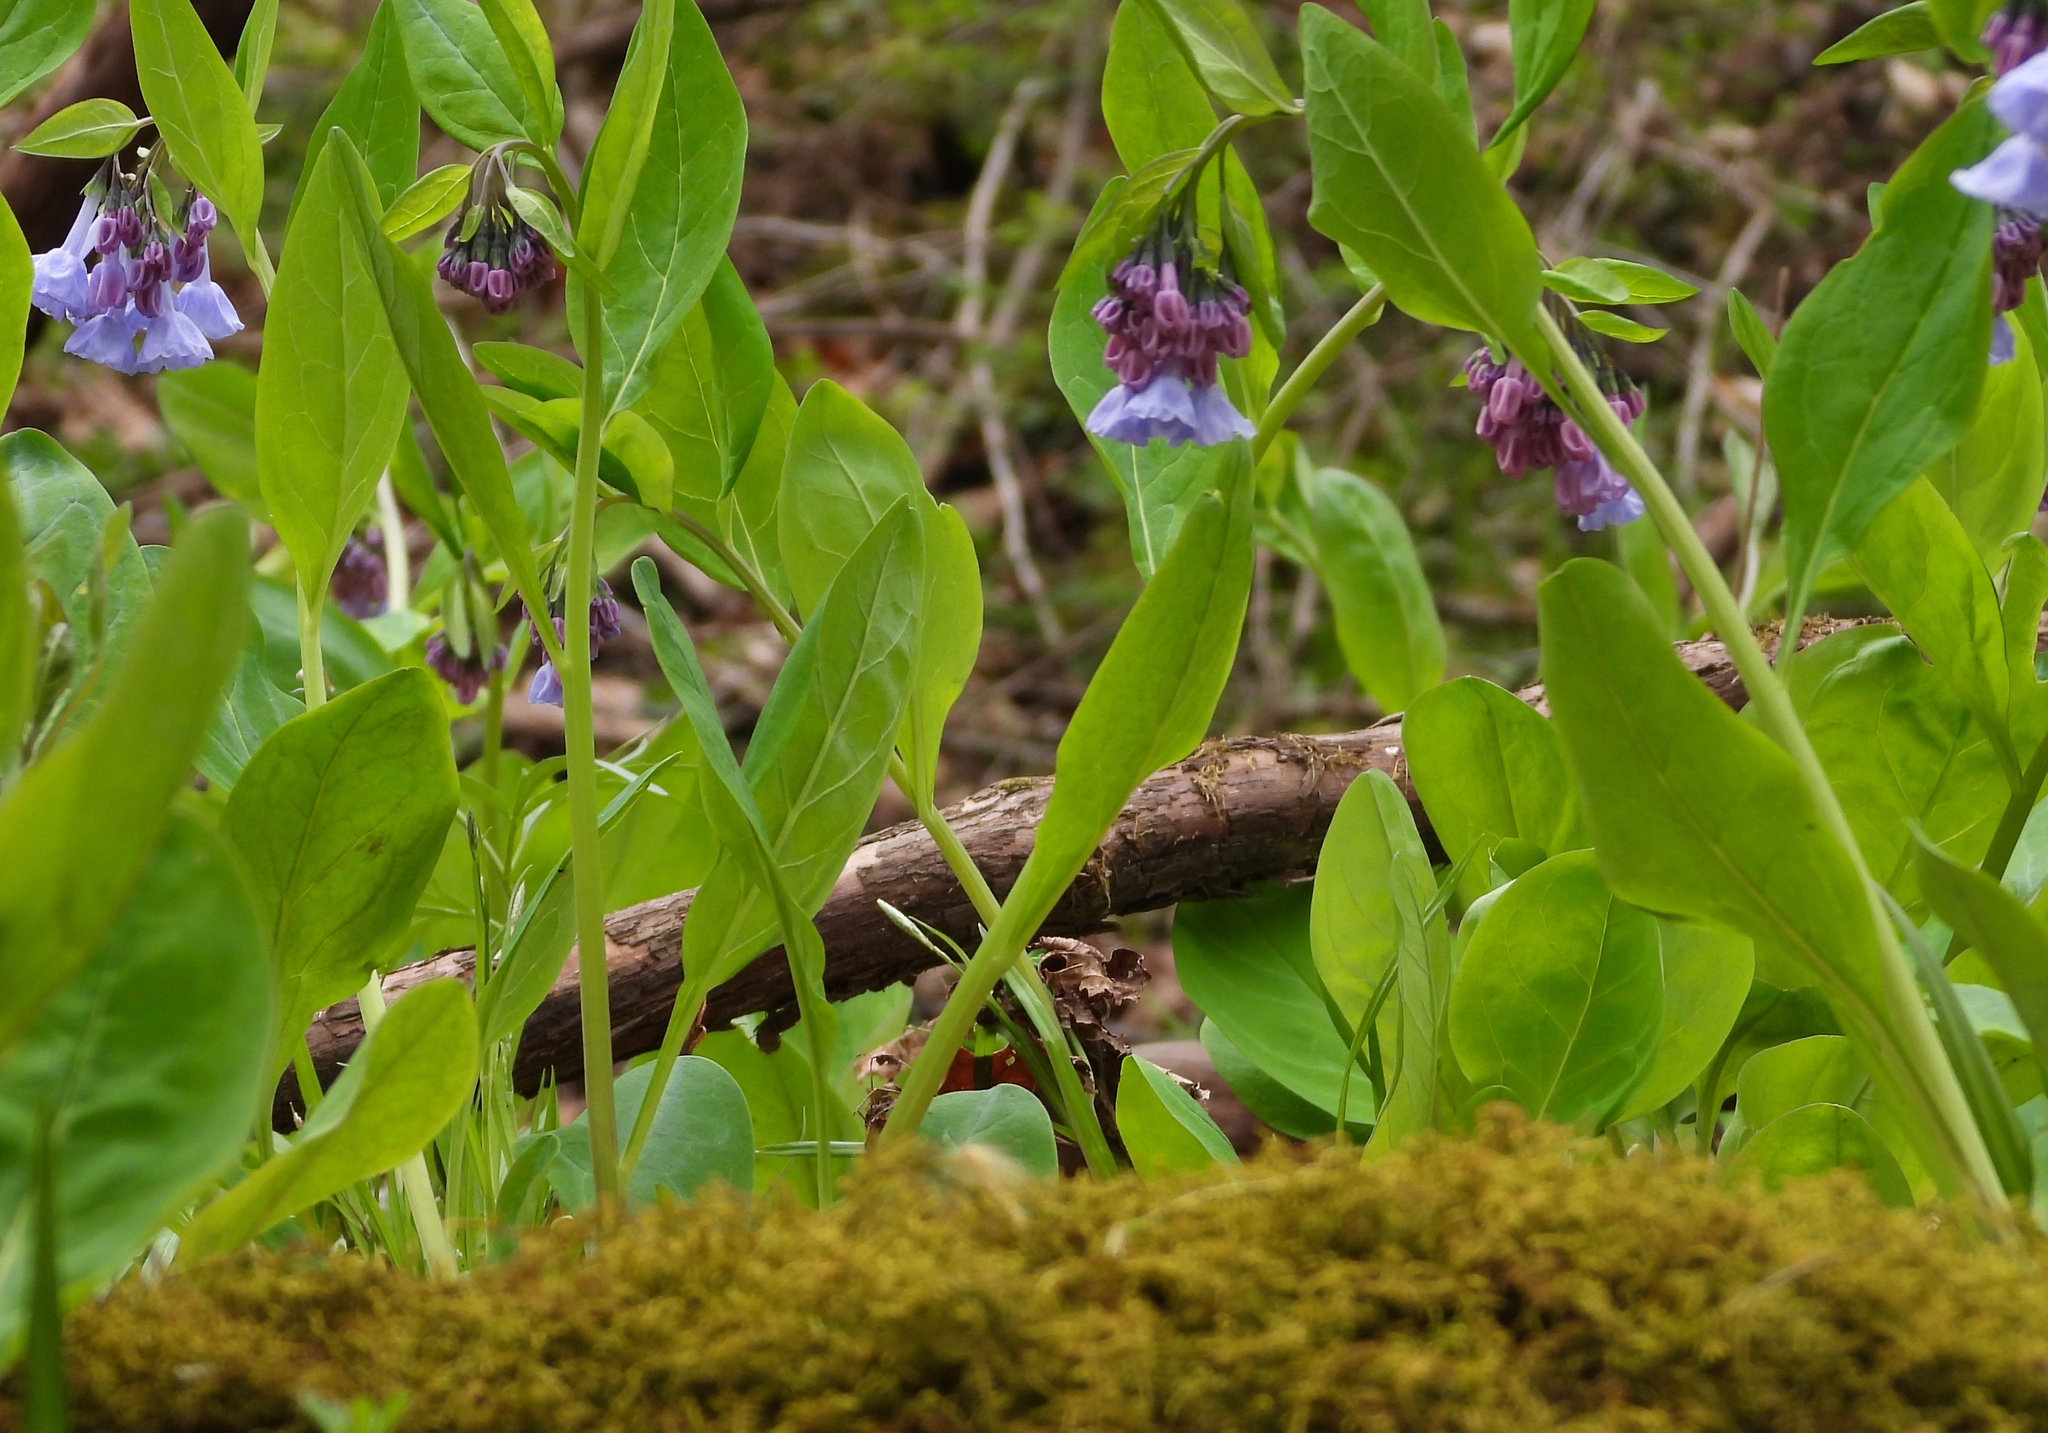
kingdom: Plantae
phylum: Tracheophyta
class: Magnoliopsida
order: Boraginales
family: Boraginaceae
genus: Mertensia
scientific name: Mertensia virginica
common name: Virginia bluebells
